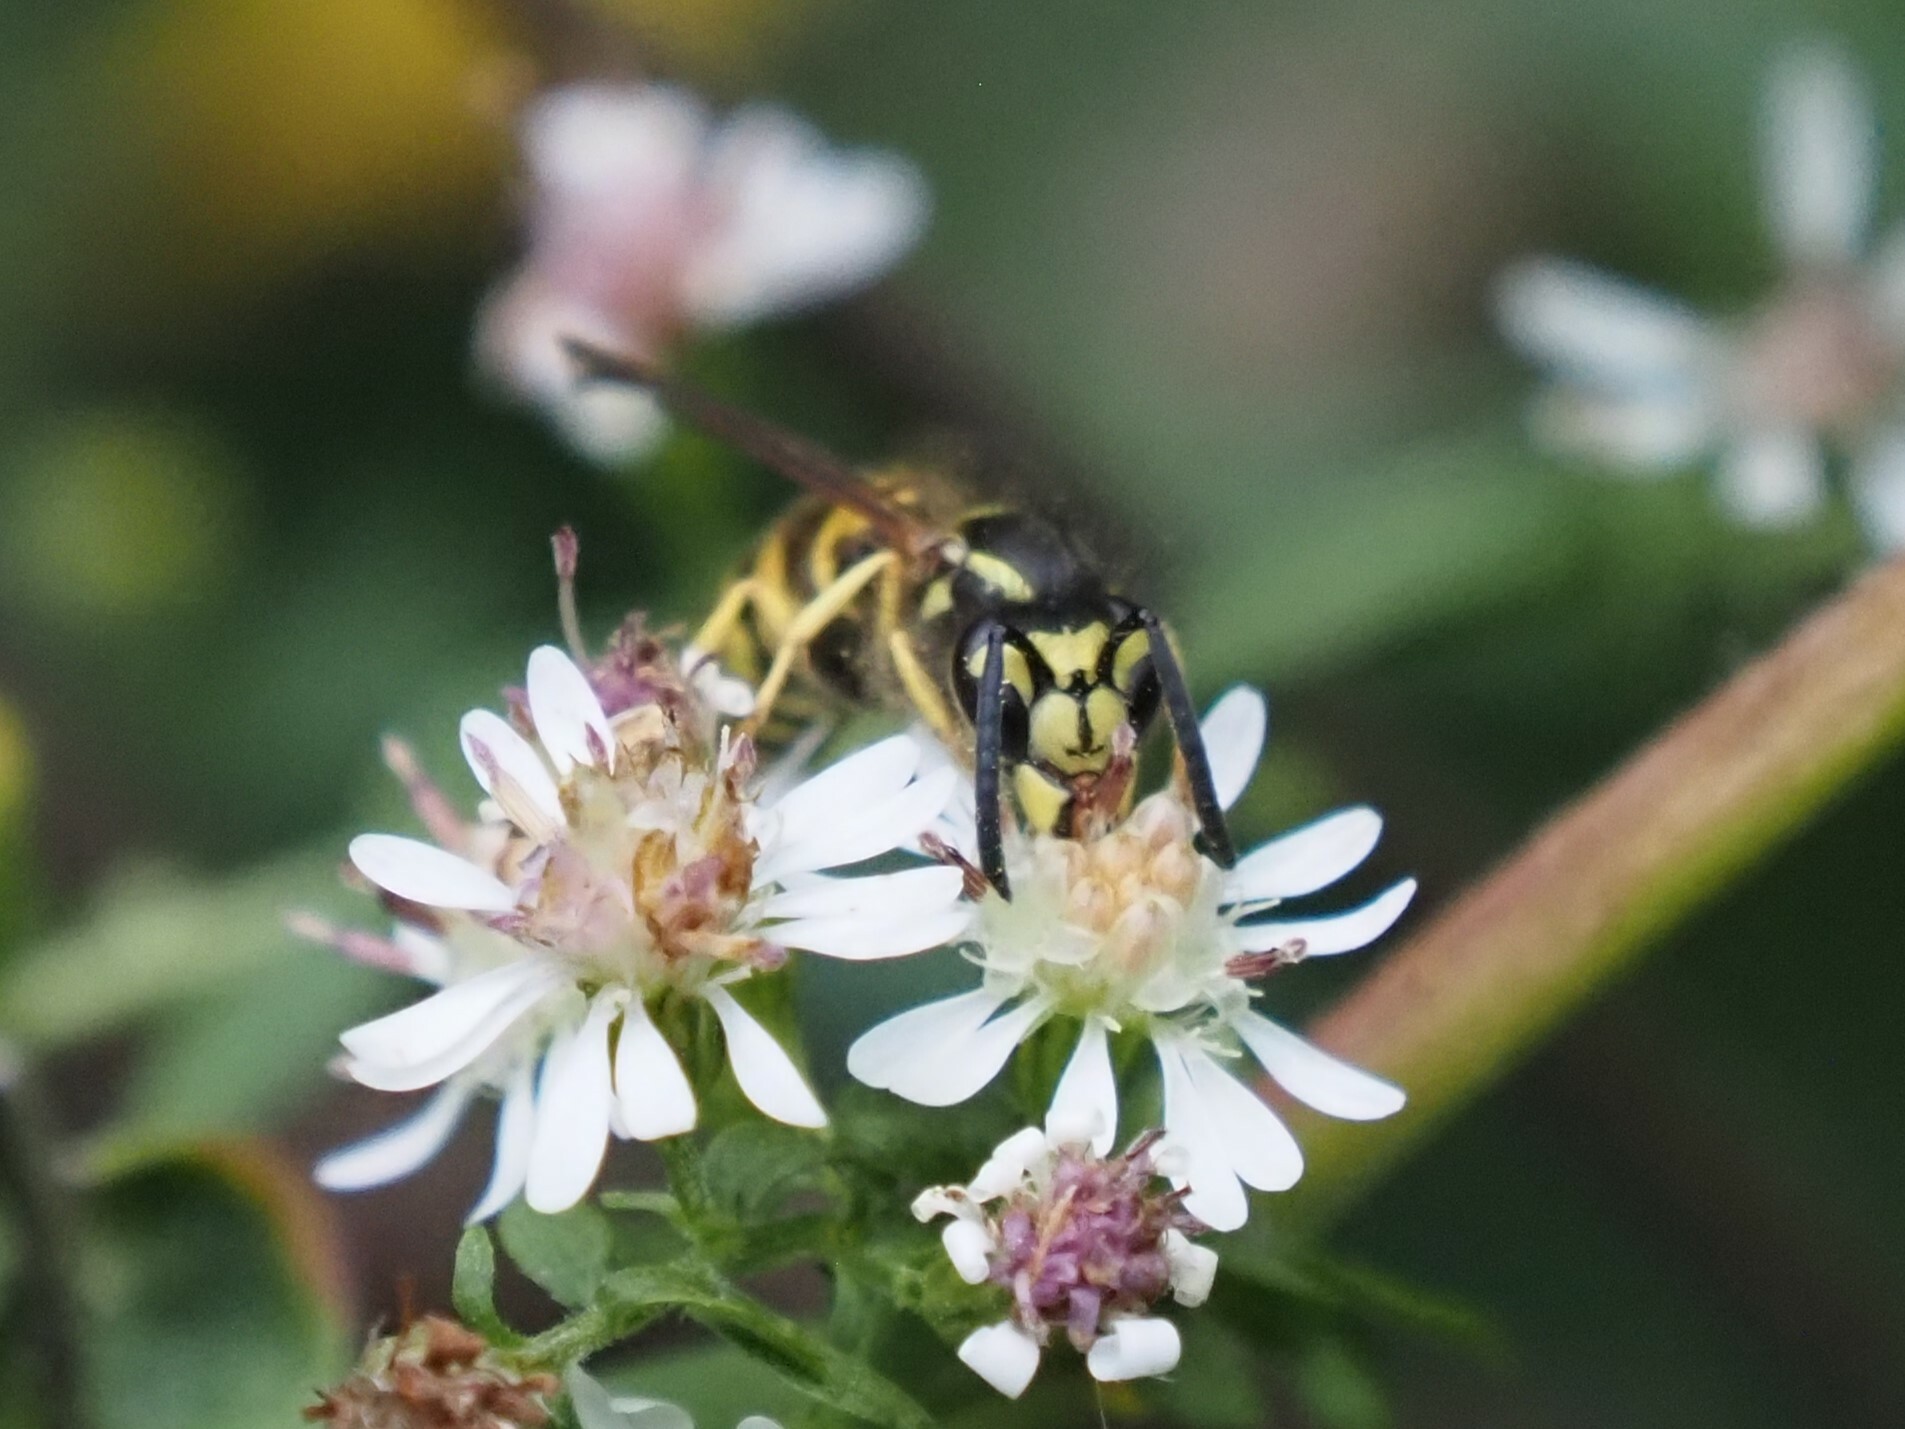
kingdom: Animalia
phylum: Arthropoda
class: Insecta
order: Hymenoptera
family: Vespidae
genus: Vespula
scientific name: Vespula maculifrons
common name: Eastern yellowjacket
